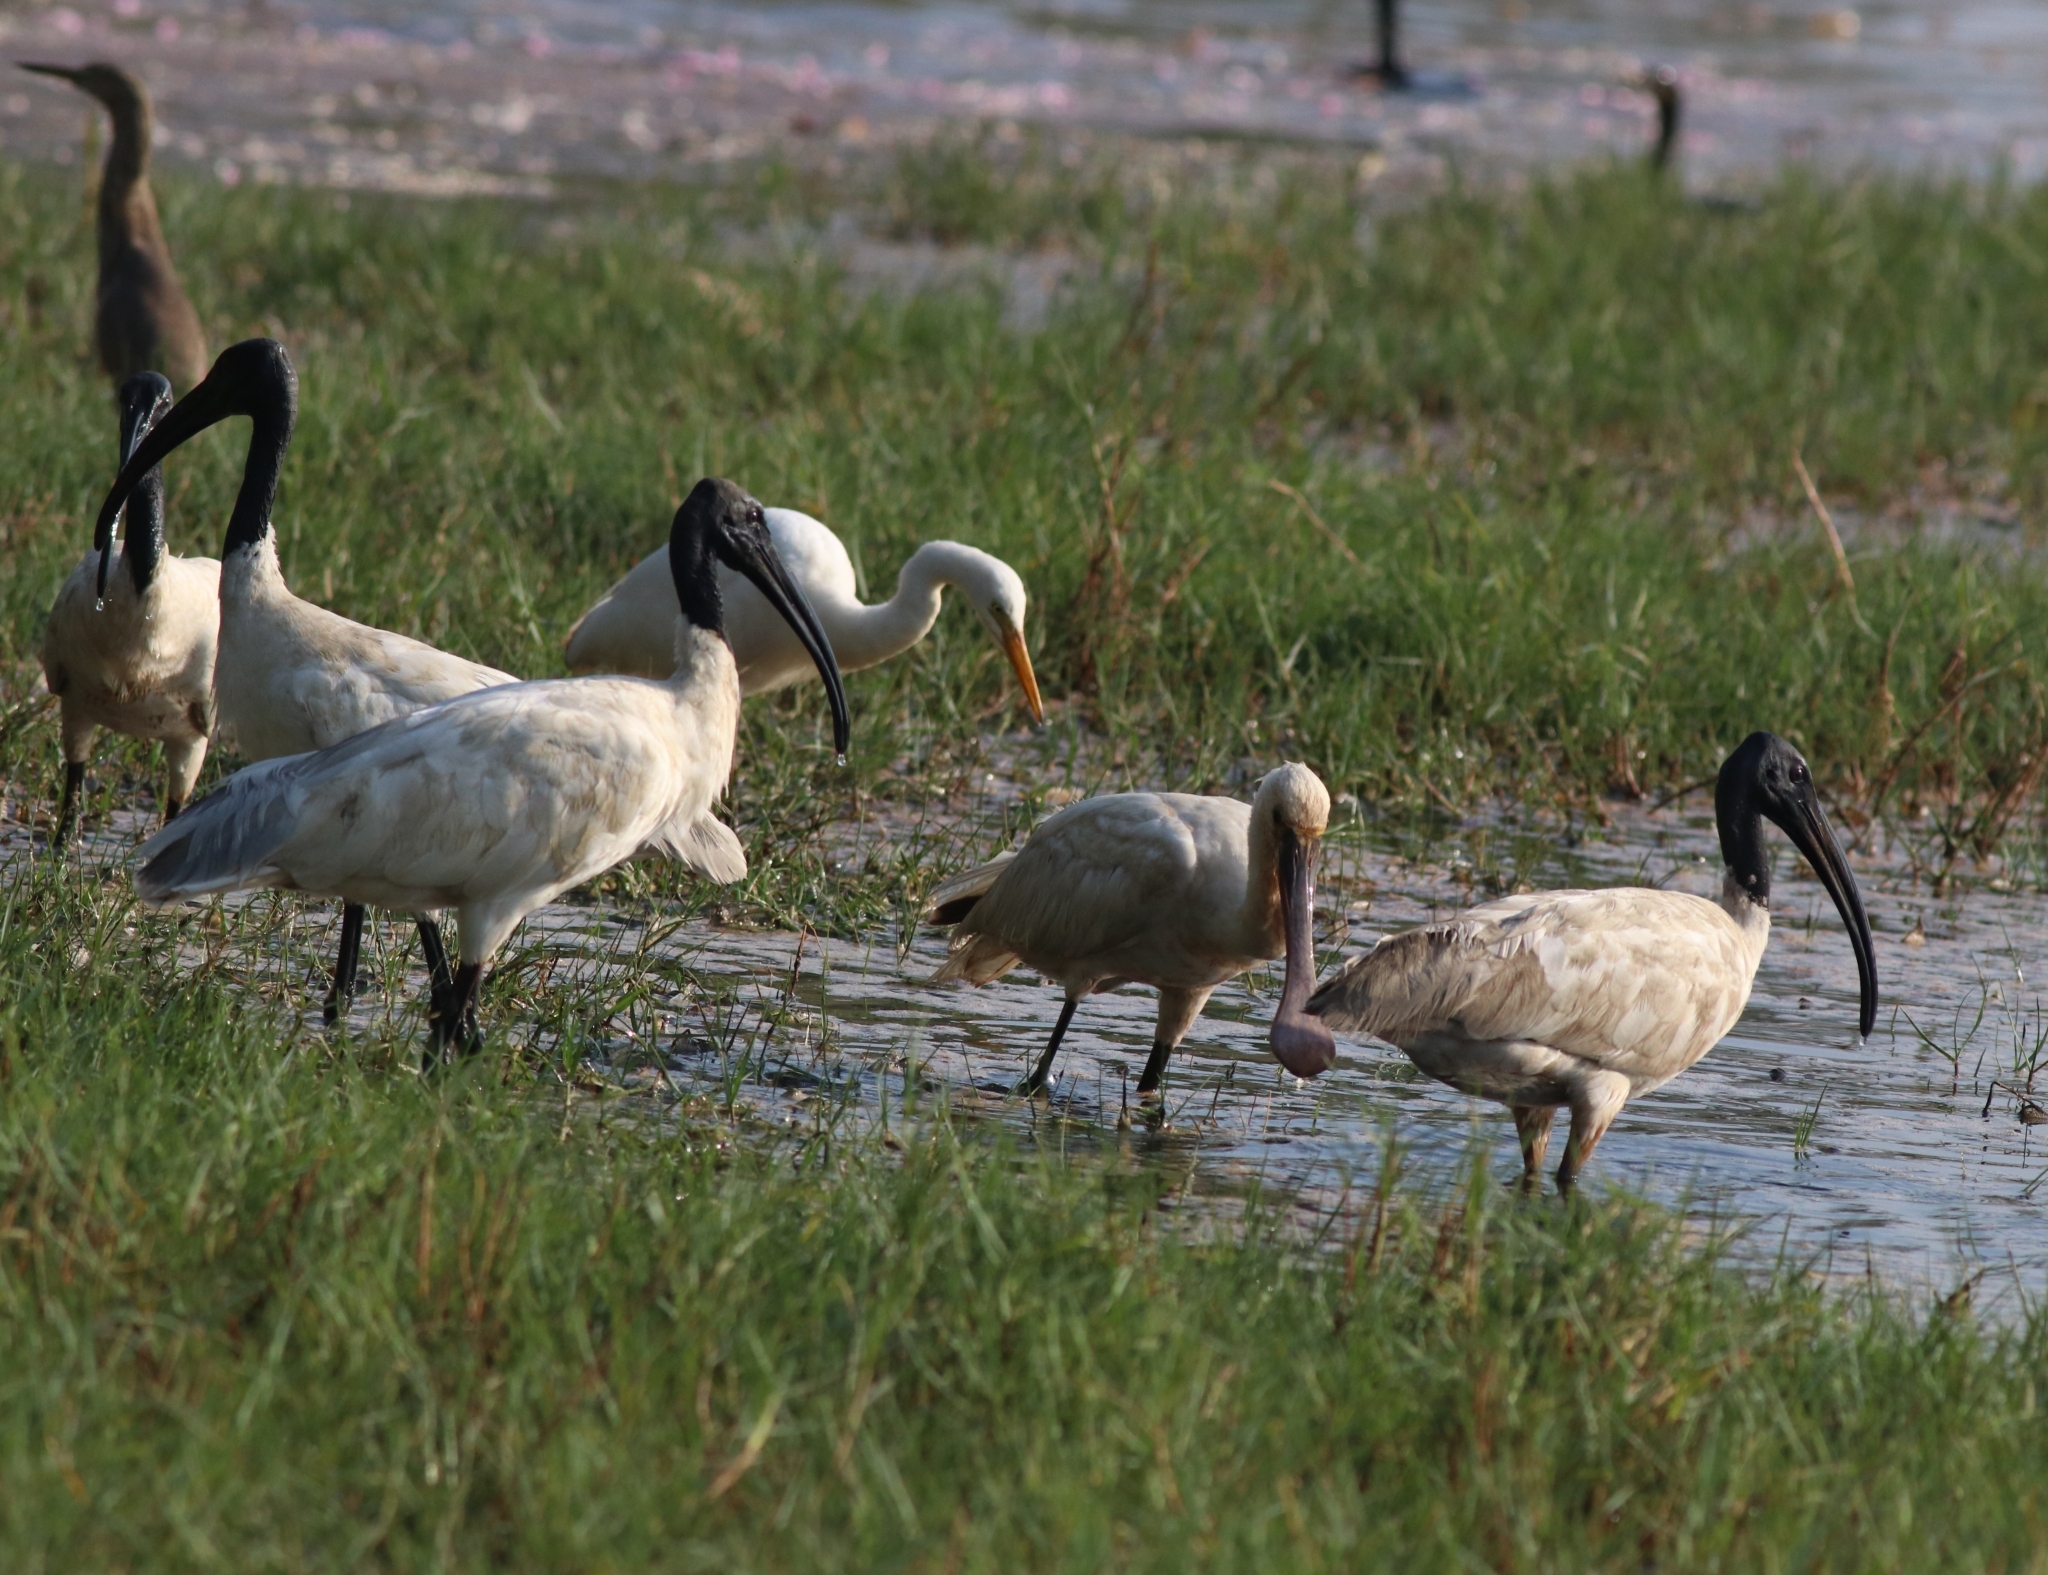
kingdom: Animalia
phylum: Chordata
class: Aves
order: Pelecaniformes
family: Threskiornithidae
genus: Threskiornis
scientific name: Threskiornis melanocephalus
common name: Black-headed ibis
